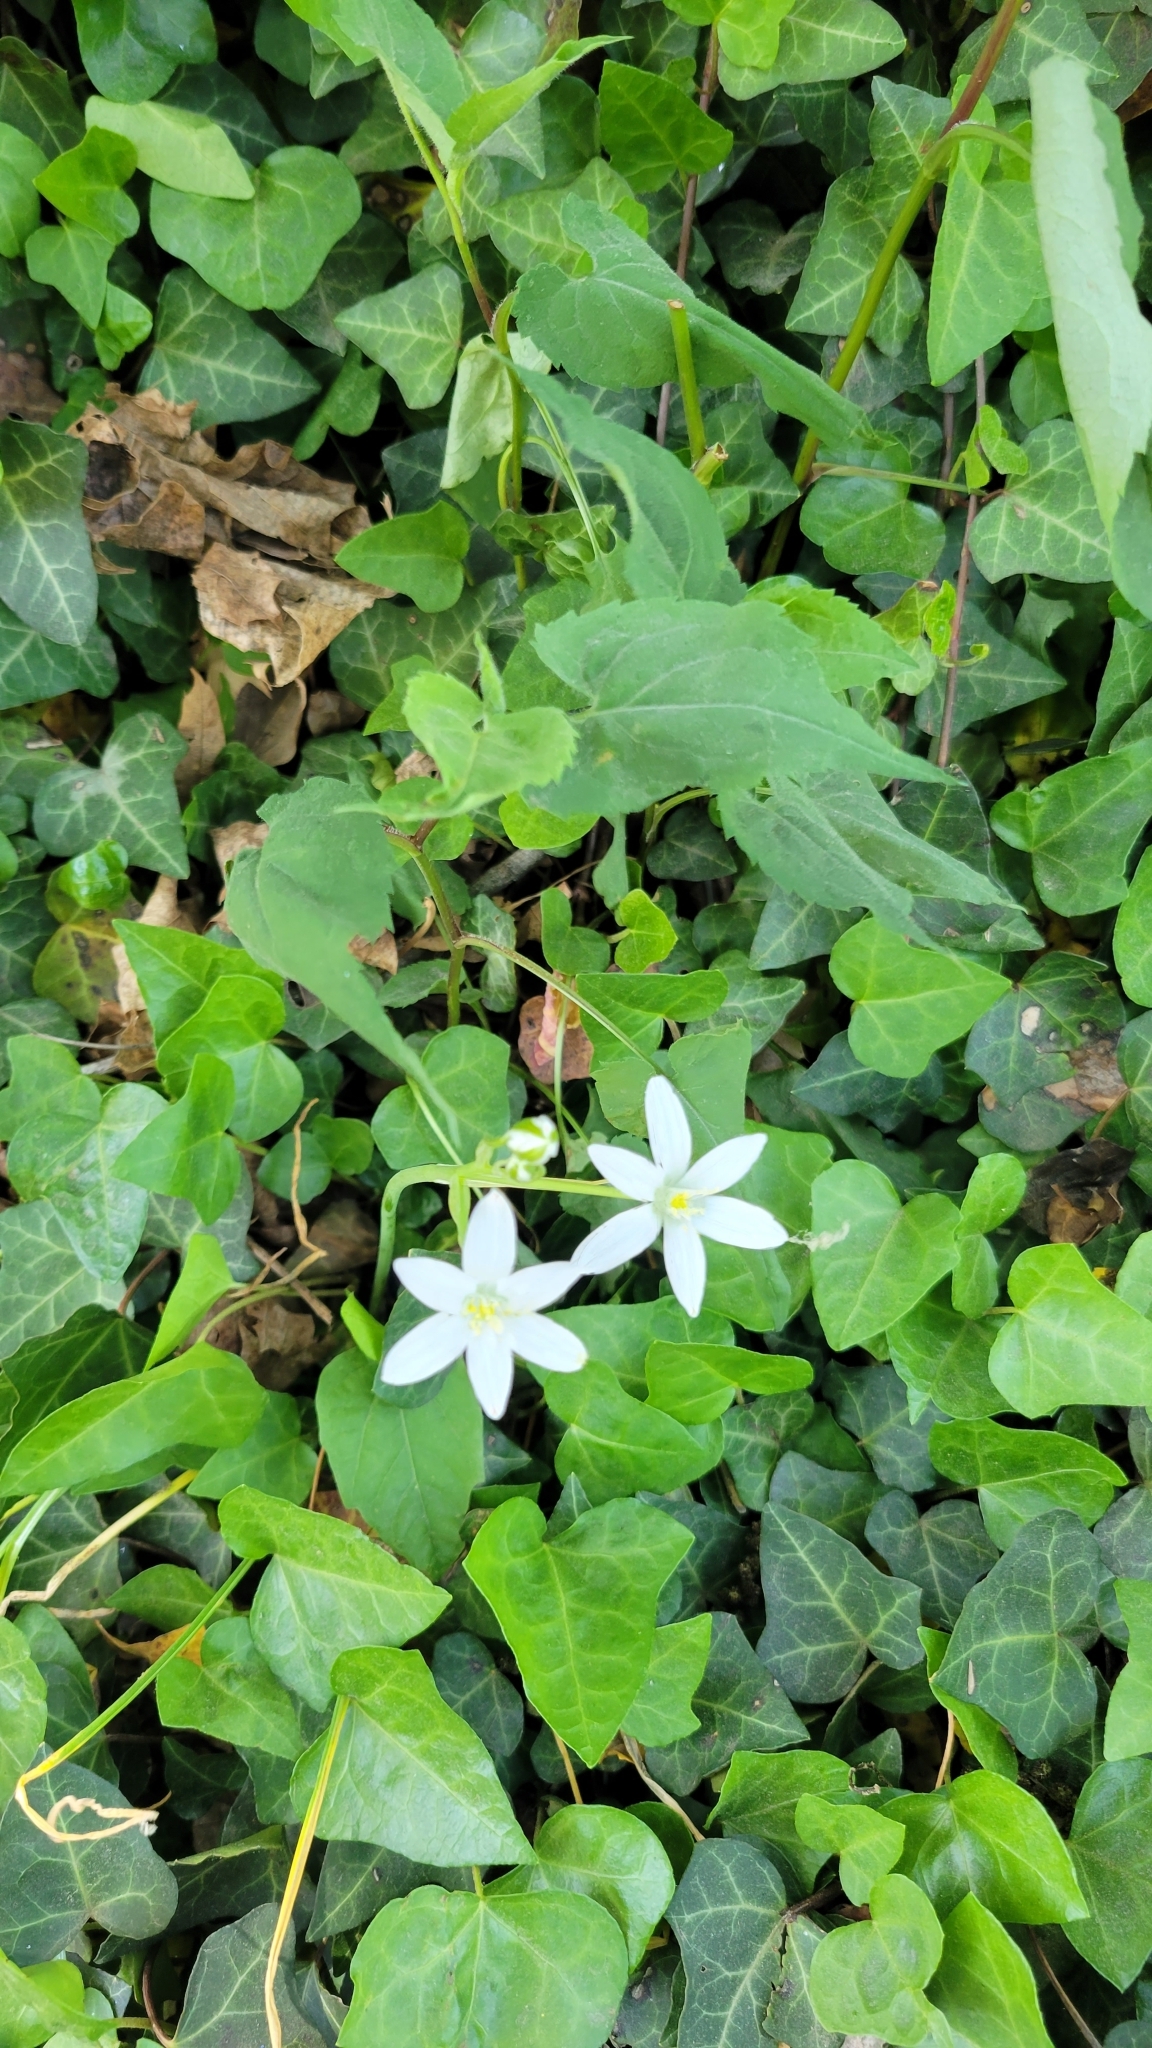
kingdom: Plantae
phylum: Tracheophyta
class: Liliopsida
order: Asparagales
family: Asparagaceae
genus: Ornithogalum
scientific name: Ornithogalum umbellatum
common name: Garden star-of-bethlehem
